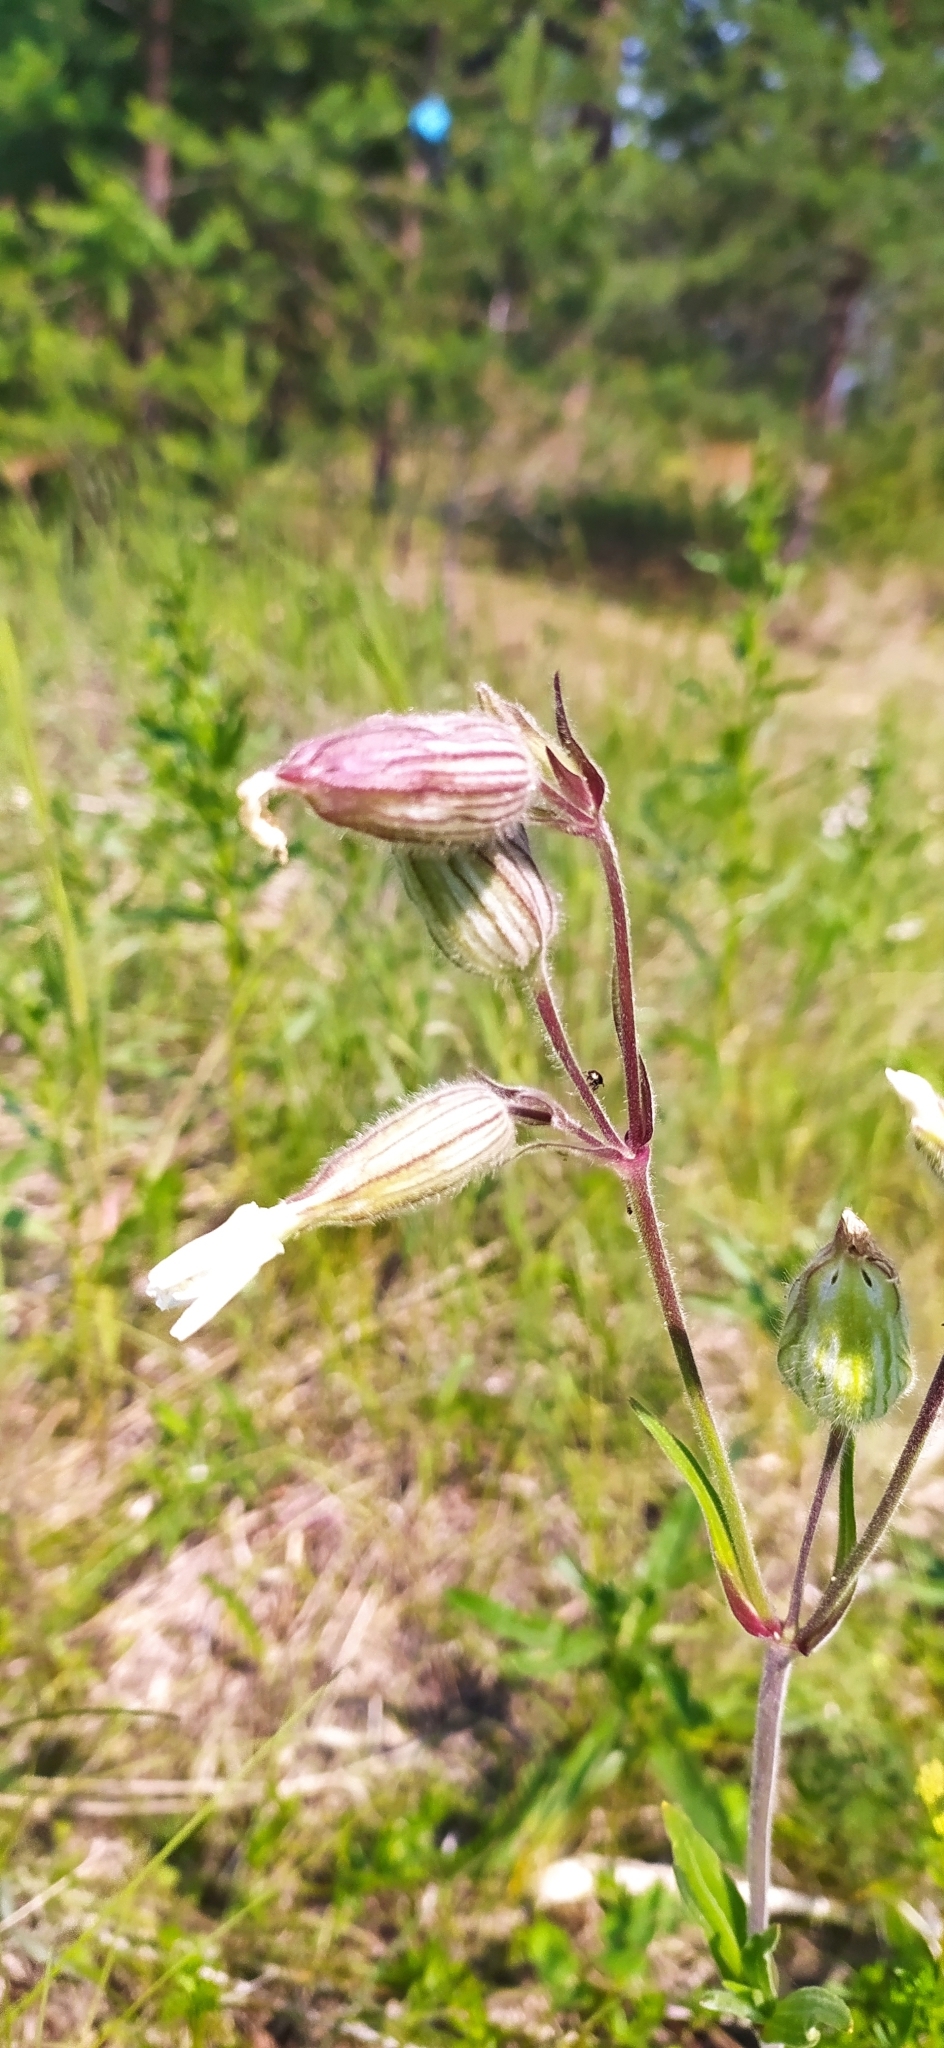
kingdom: Plantae
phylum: Tracheophyta
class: Magnoliopsida
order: Caryophyllales
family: Caryophyllaceae
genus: Silene
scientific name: Silene latifolia
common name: White campion
